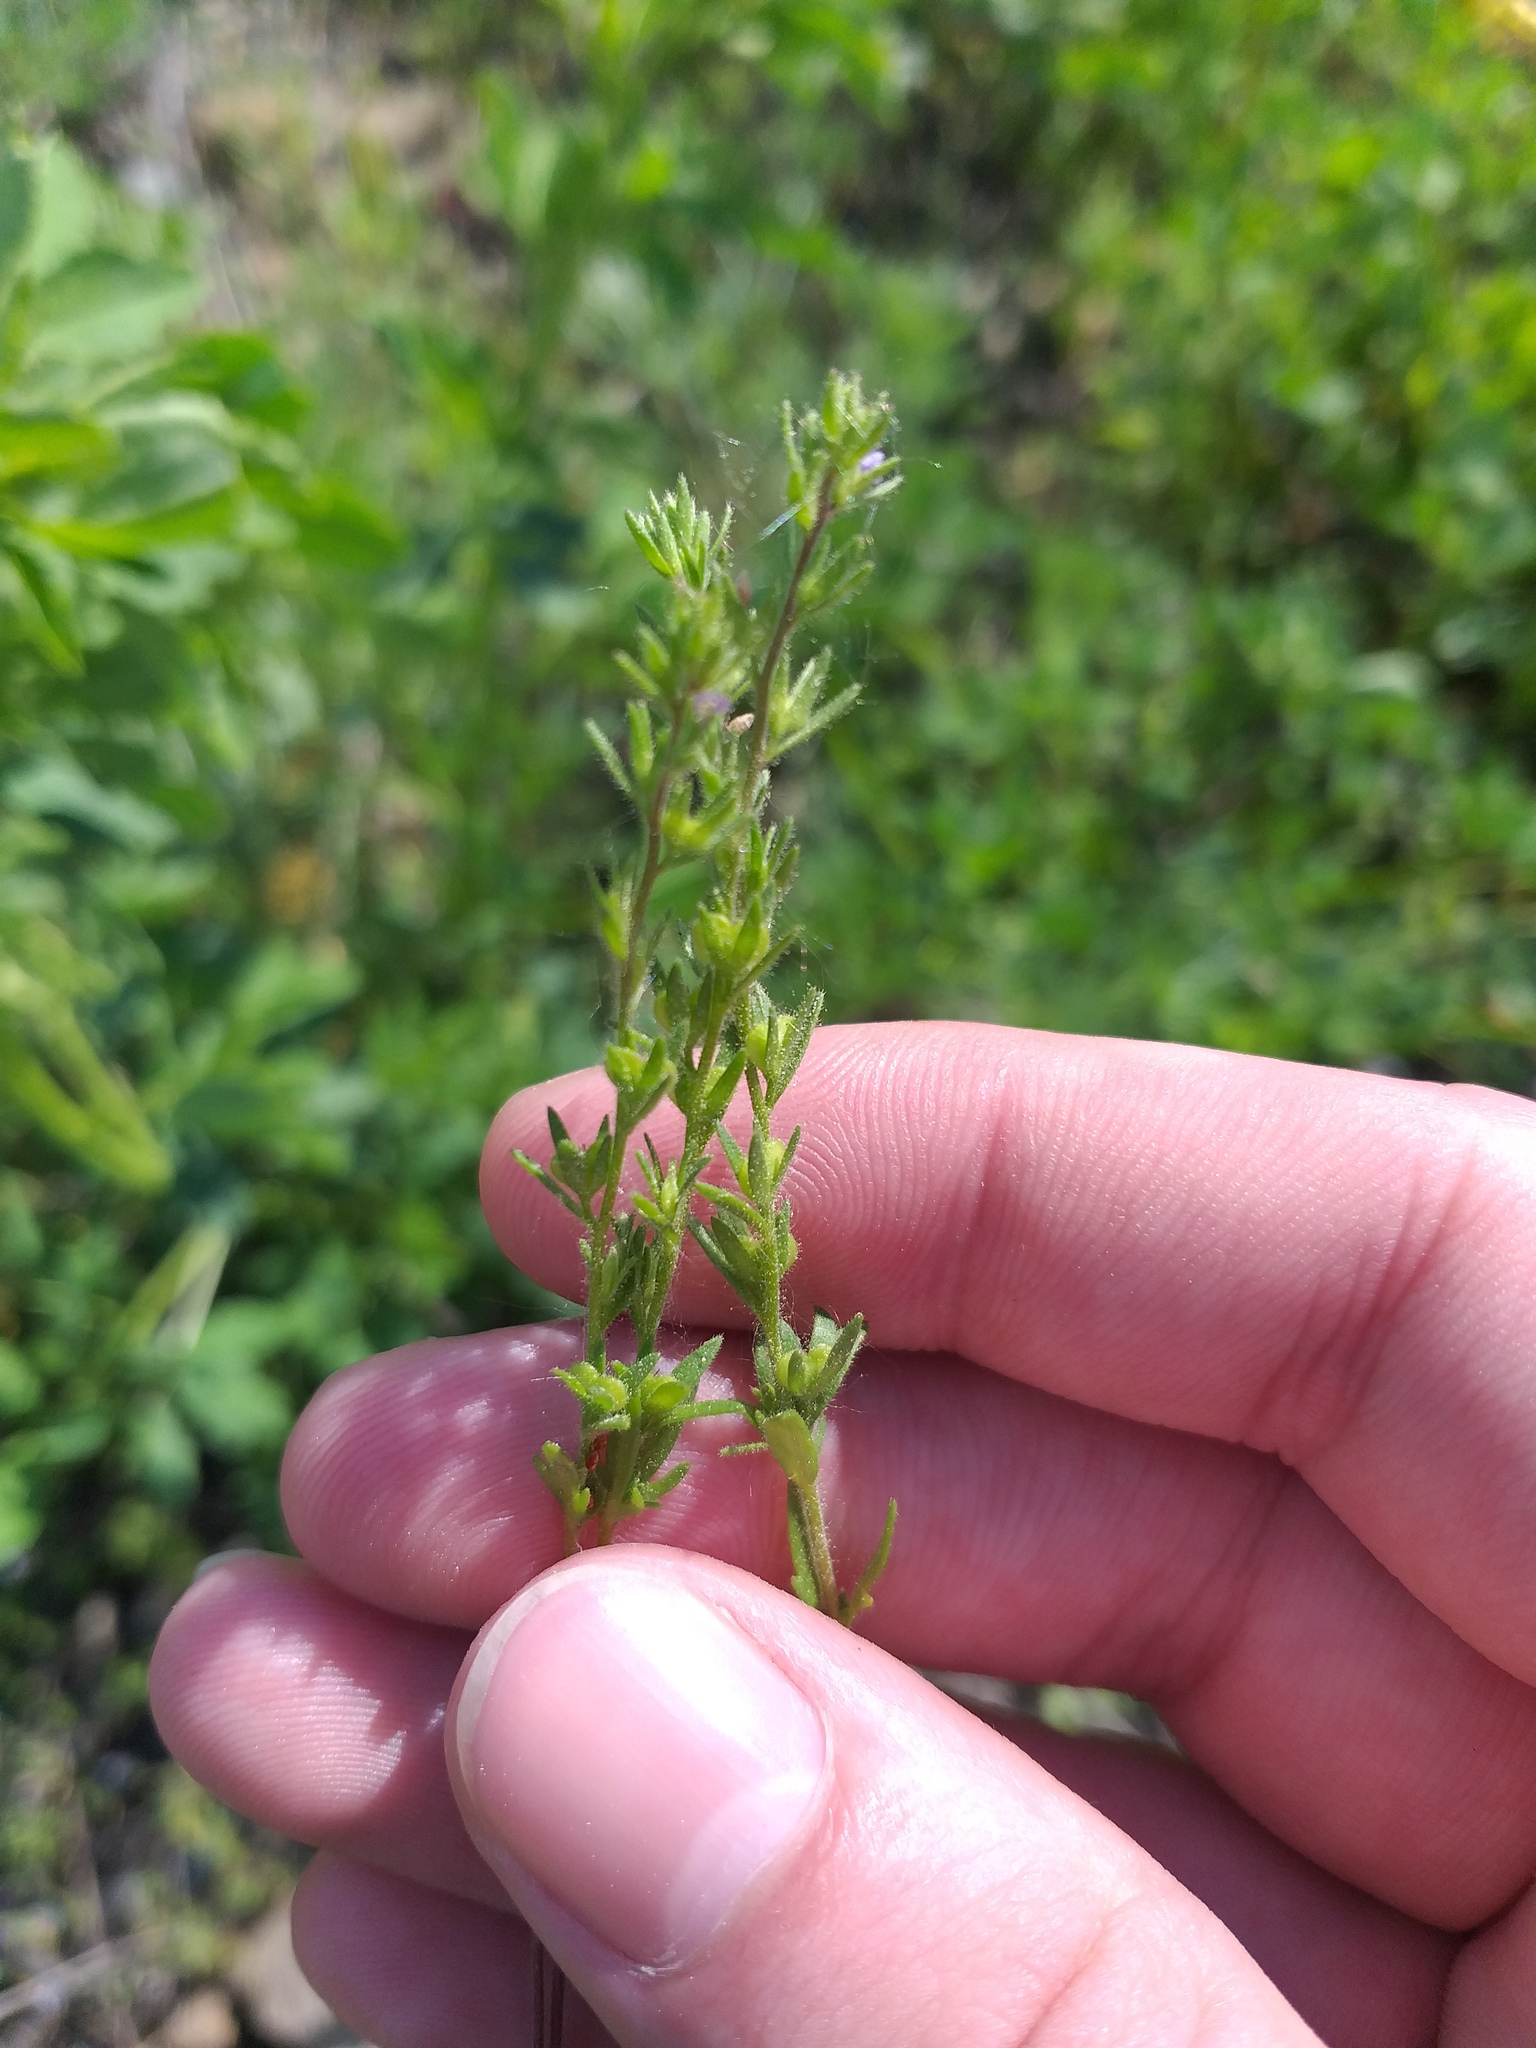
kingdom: Plantae
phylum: Tracheophyta
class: Magnoliopsida
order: Lamiales
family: Plantaginaceae
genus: Veronica
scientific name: Veronica verna
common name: Spring speedwell
